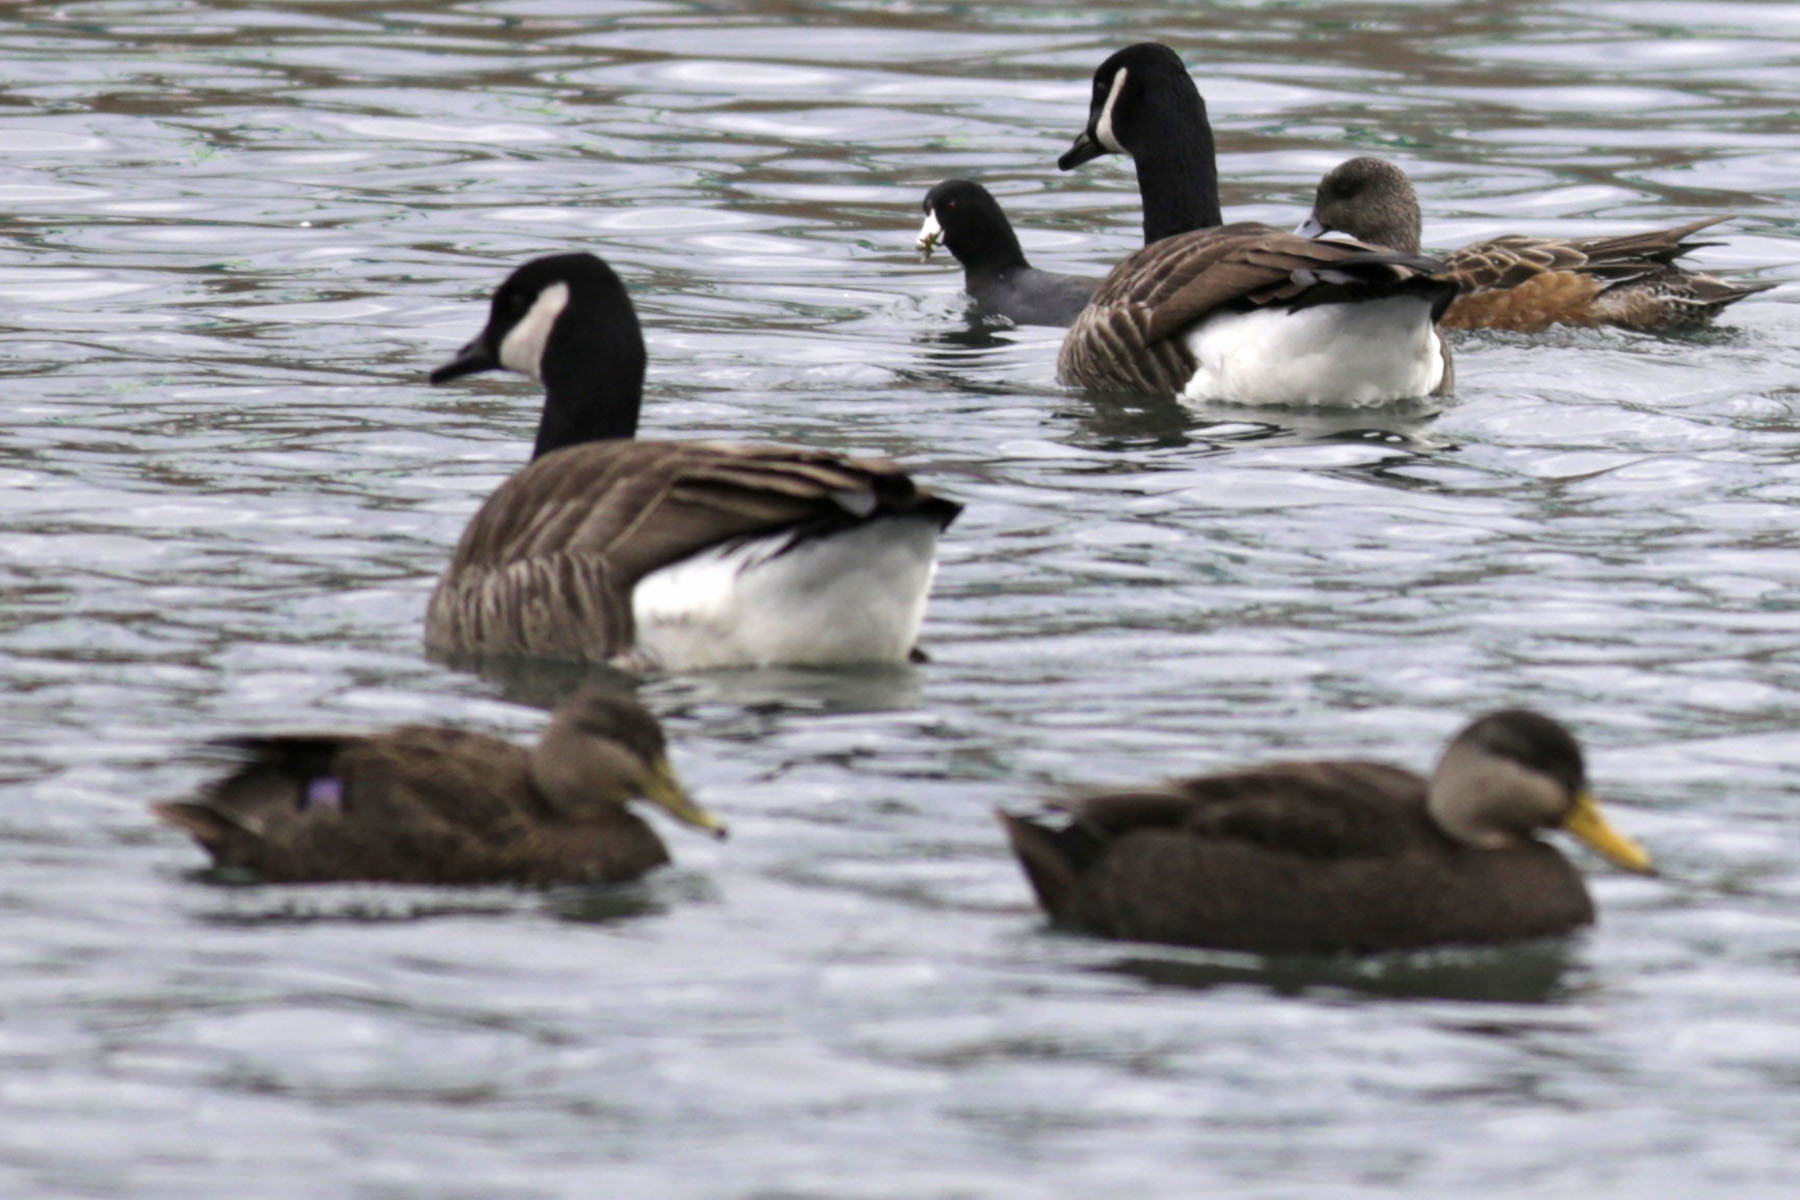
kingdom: Animalia
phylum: Chordata
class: Aves
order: Anseriformes
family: Anatidae
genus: Anas
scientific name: Anas rubripes
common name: American black duck
